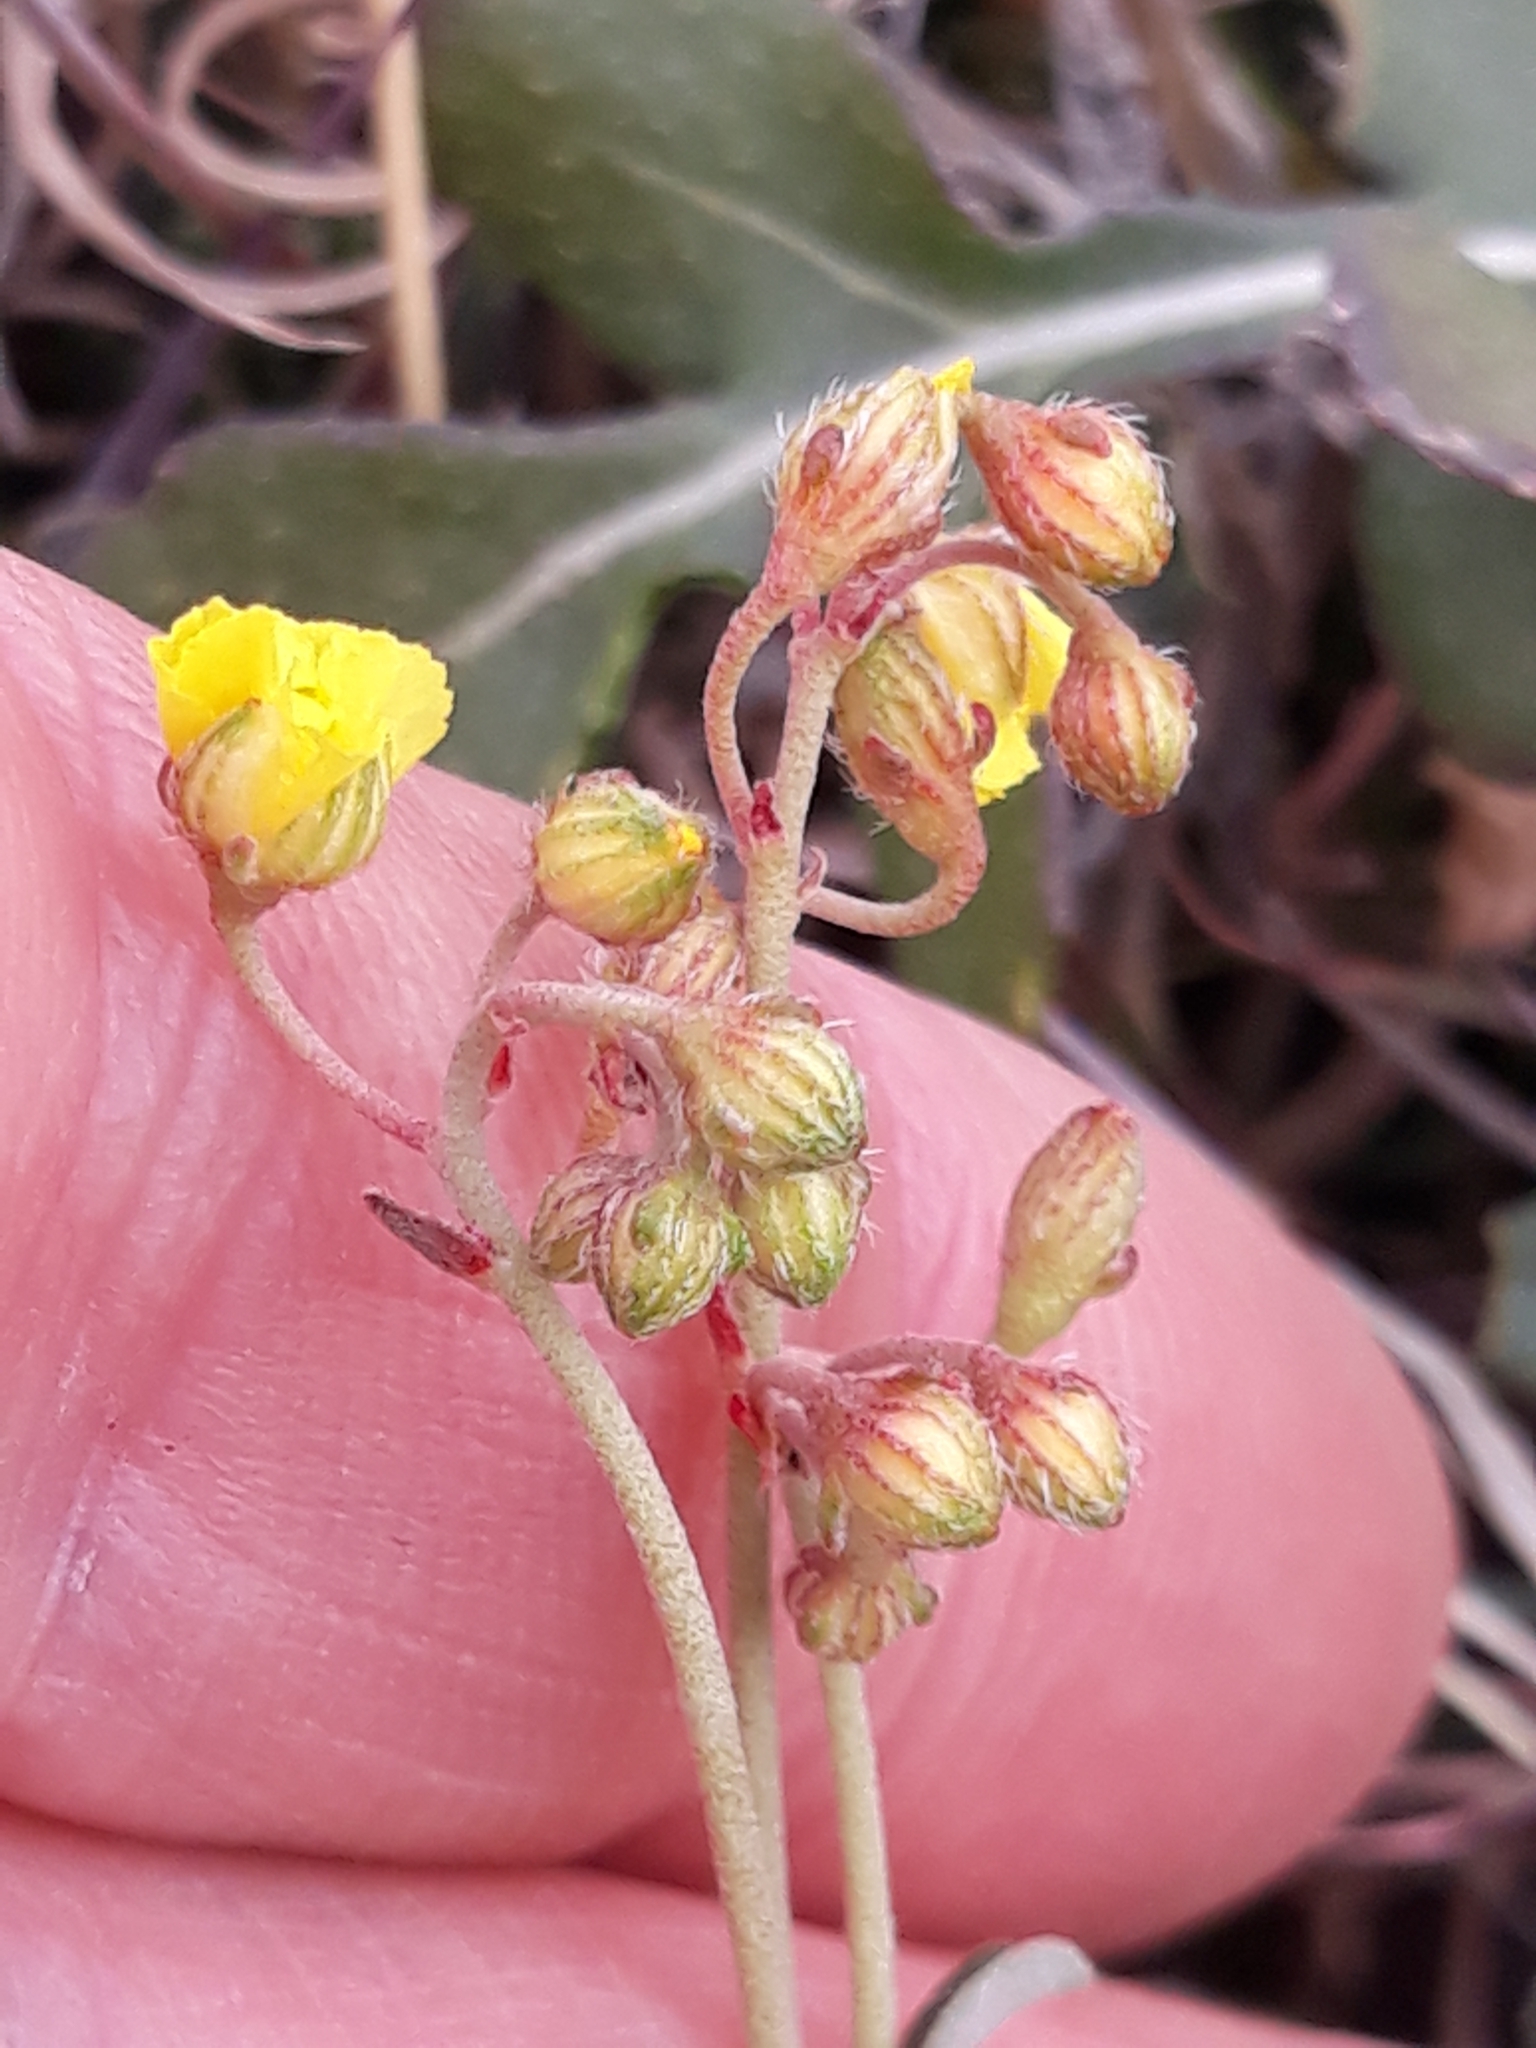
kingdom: Plantae
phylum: Tracheophyta
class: Magnoliopsida
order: Malvales
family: Cistaceae
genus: Helianthemum
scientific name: Helianthemum cinereum
